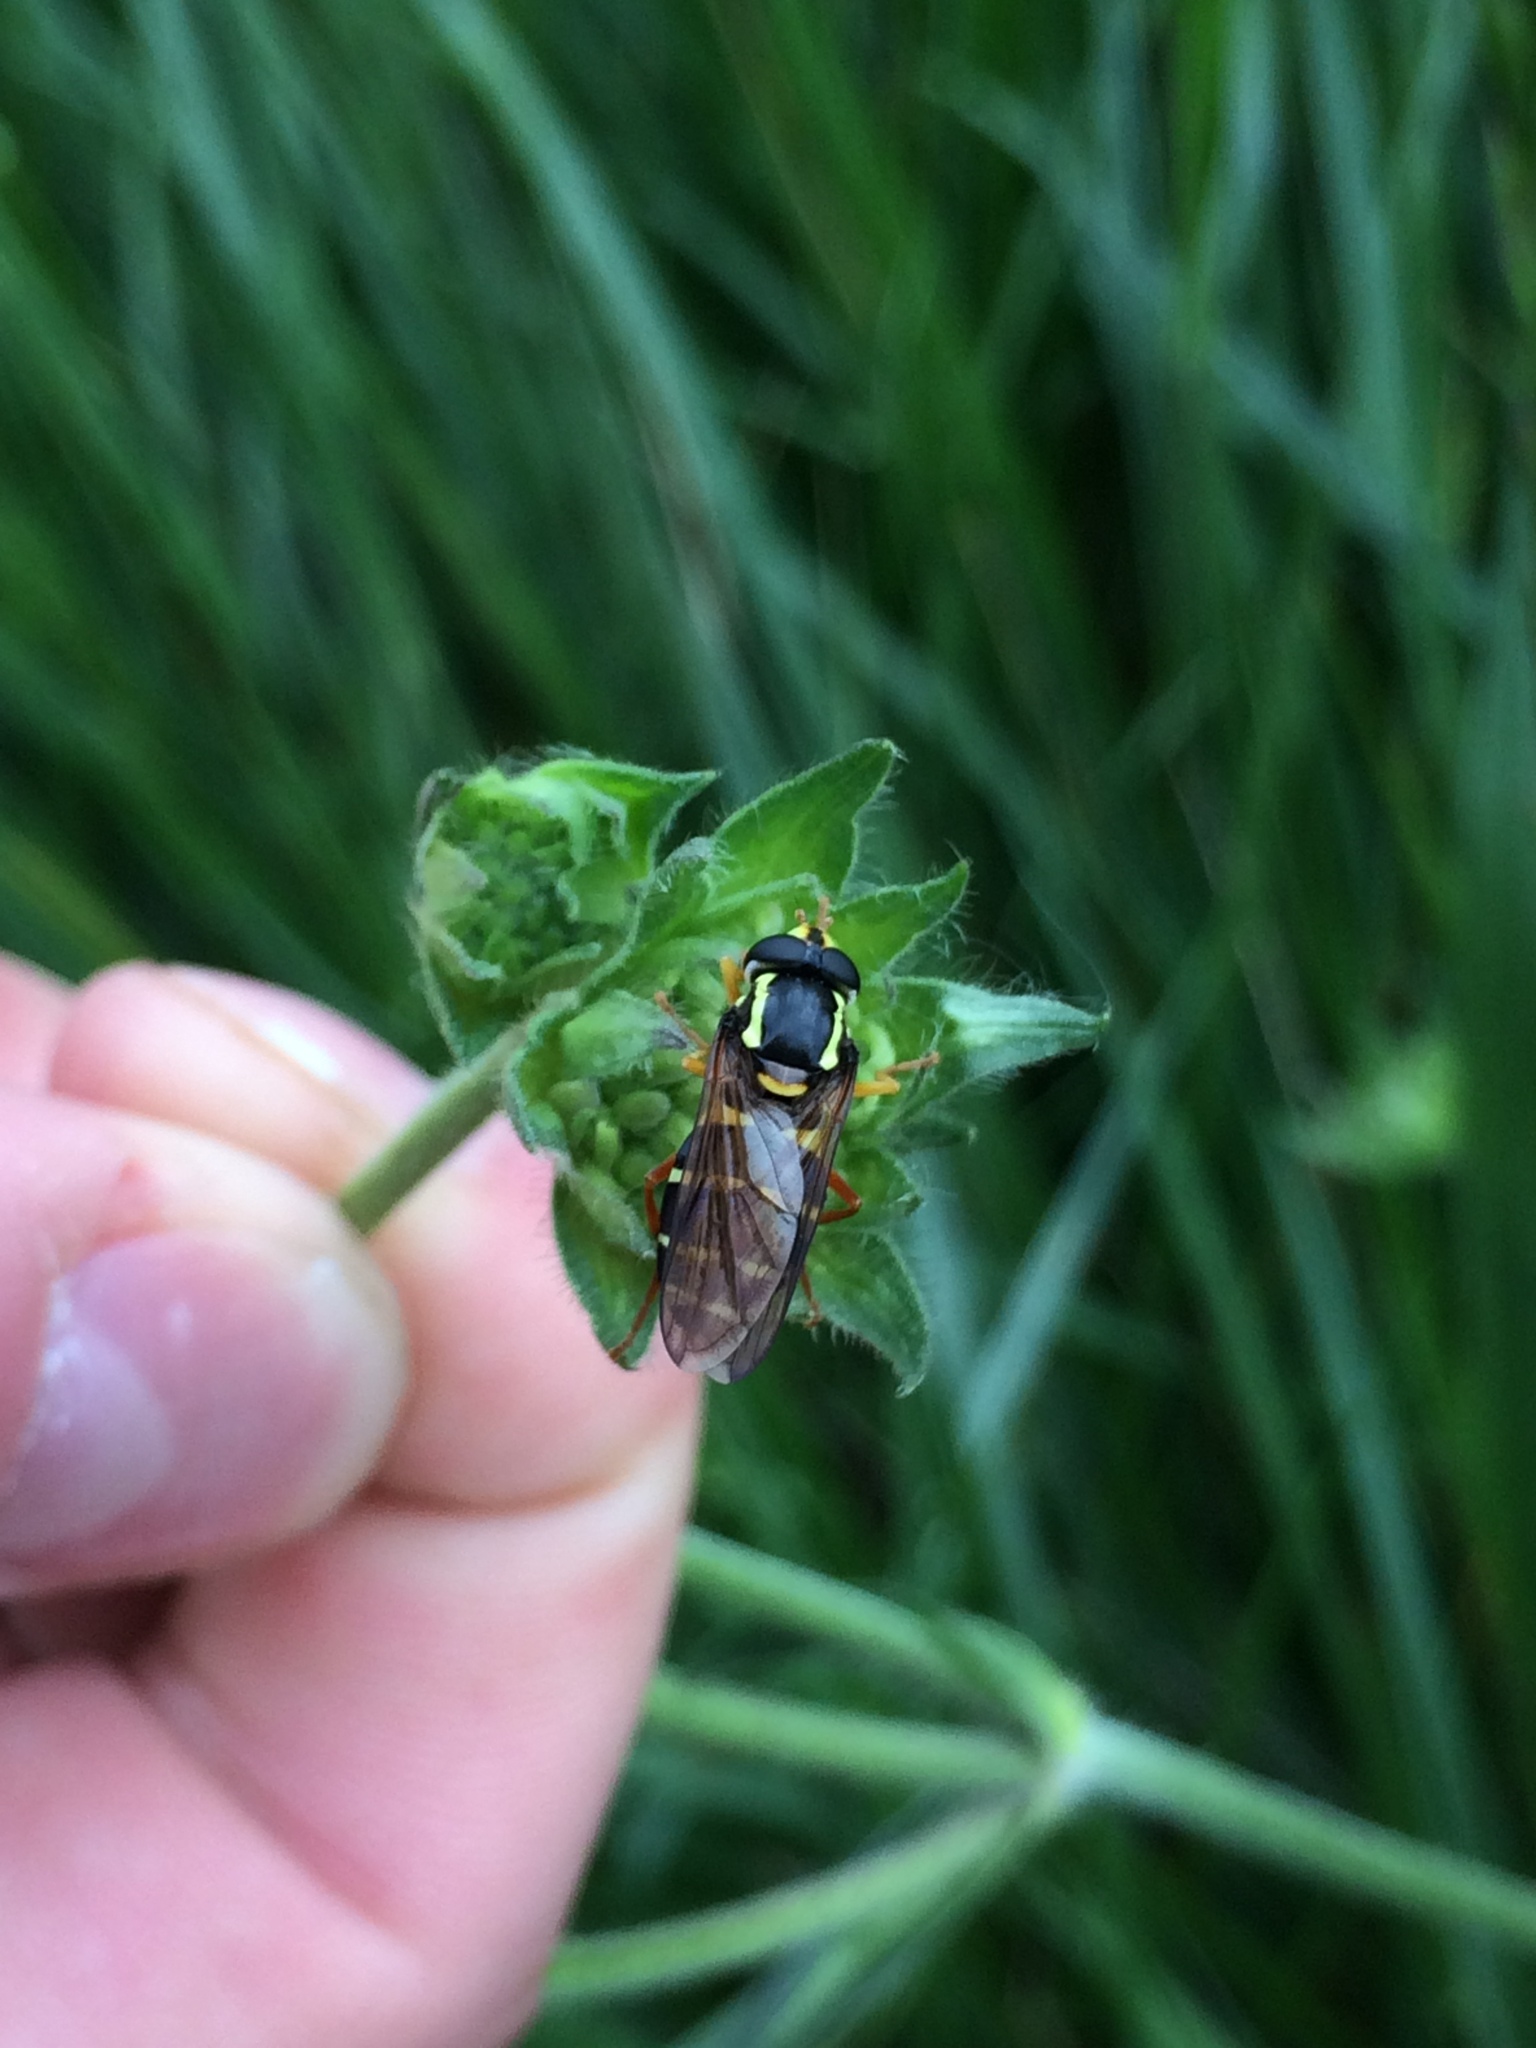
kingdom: Animalia
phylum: Arthropoda
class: Insecta
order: Diptera
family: Syrphidae
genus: Philhelius
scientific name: Philhelius citrofasciata
